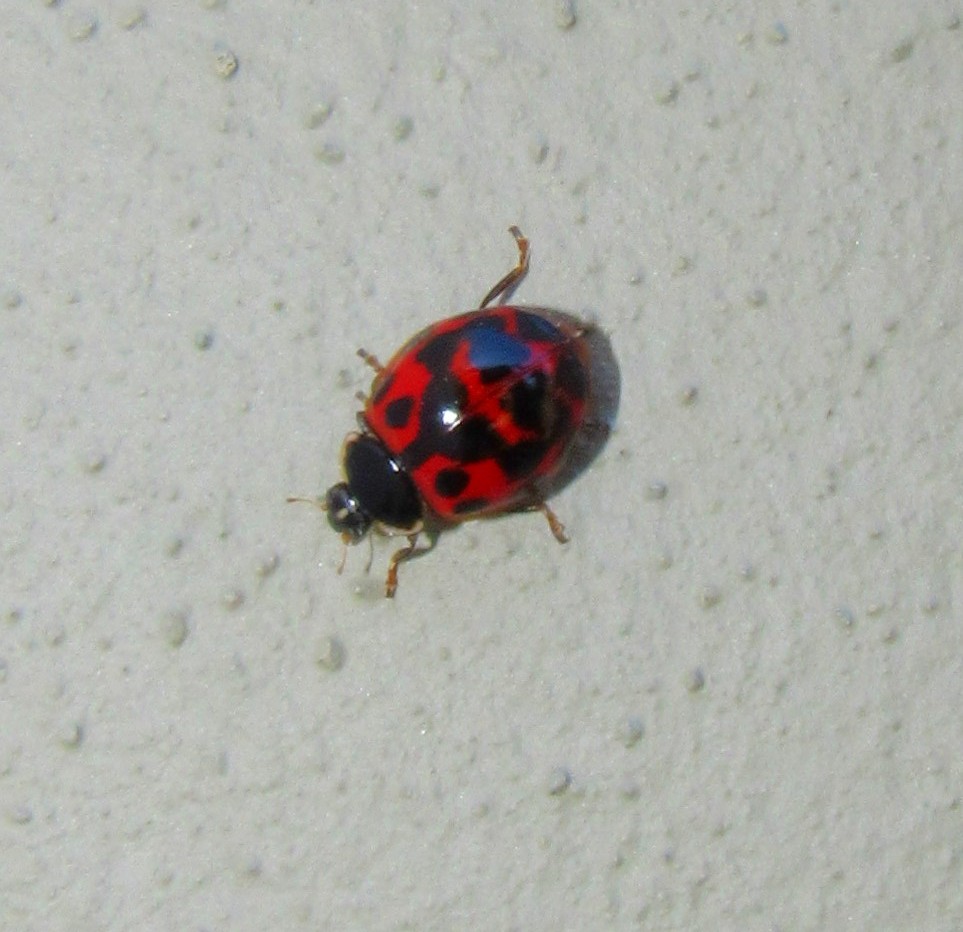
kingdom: Animalia
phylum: Arthropoda
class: Insecta
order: Coleoptera
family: Coccinellidae
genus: Harmonia
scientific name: Harmonia axyridis
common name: Harlequin ladybird
